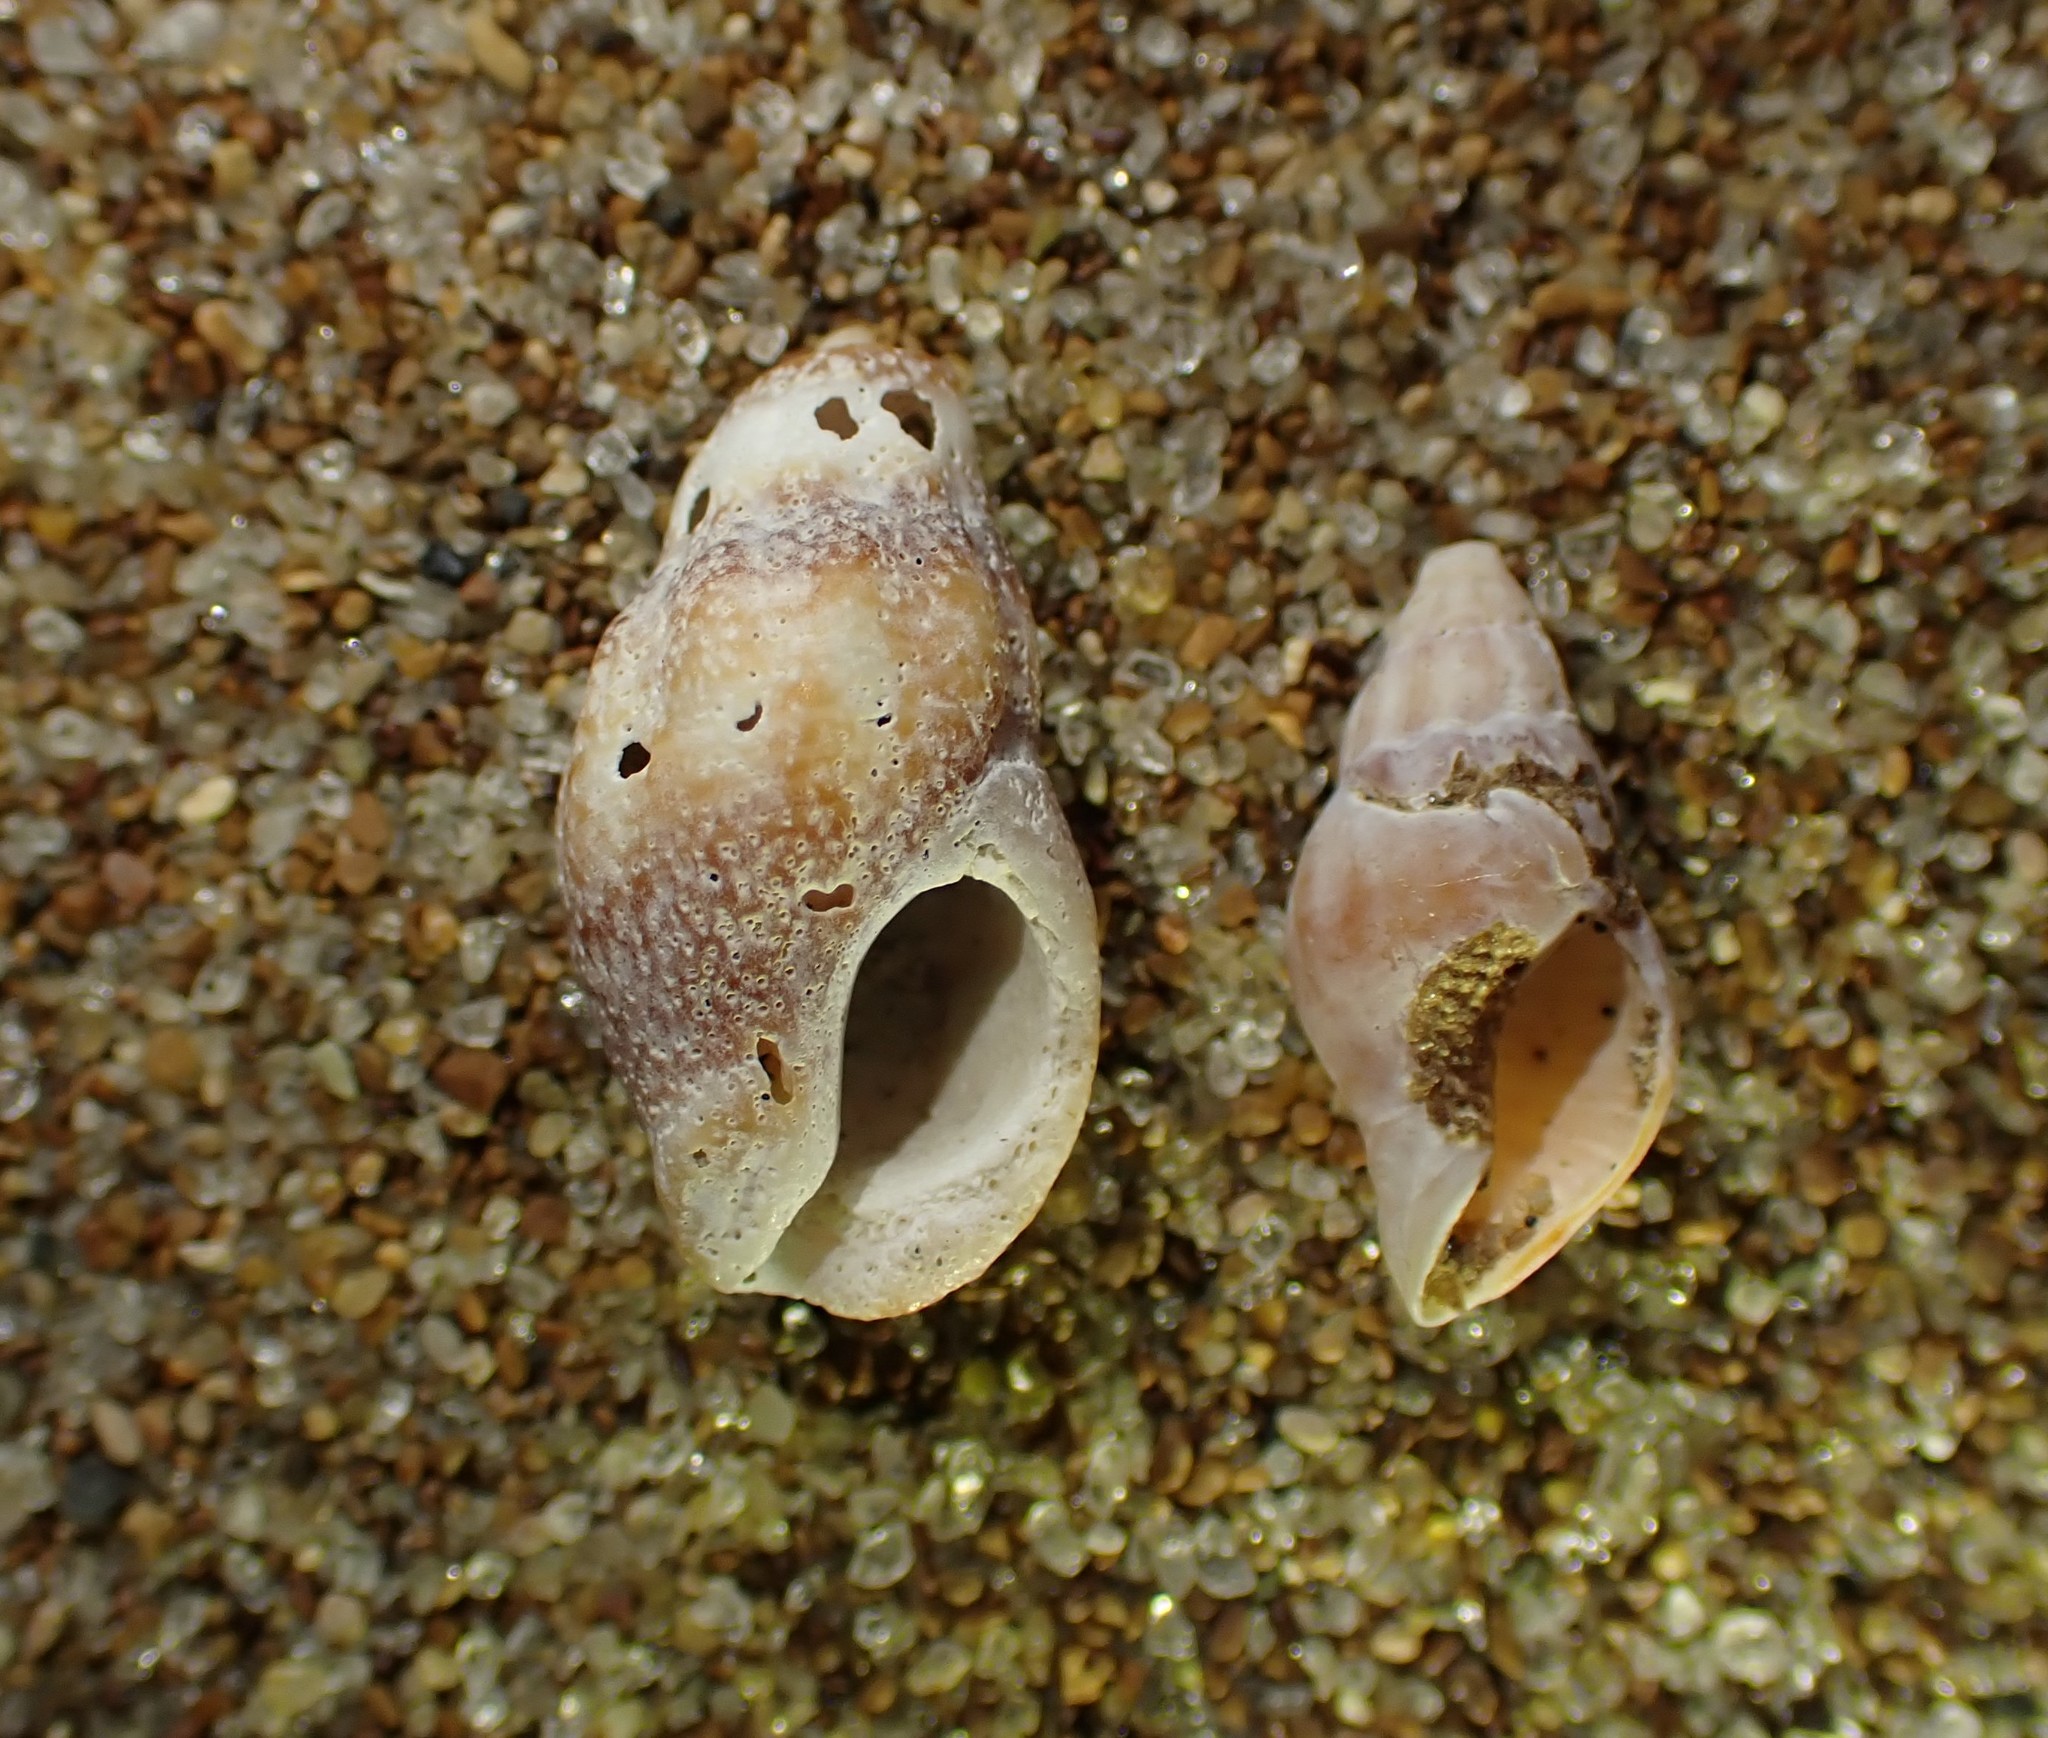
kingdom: Animalia
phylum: Mollusca
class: Gastropoda
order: Neogastropoda
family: Cominellidae
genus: Cominella
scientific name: Cominella accuminata
